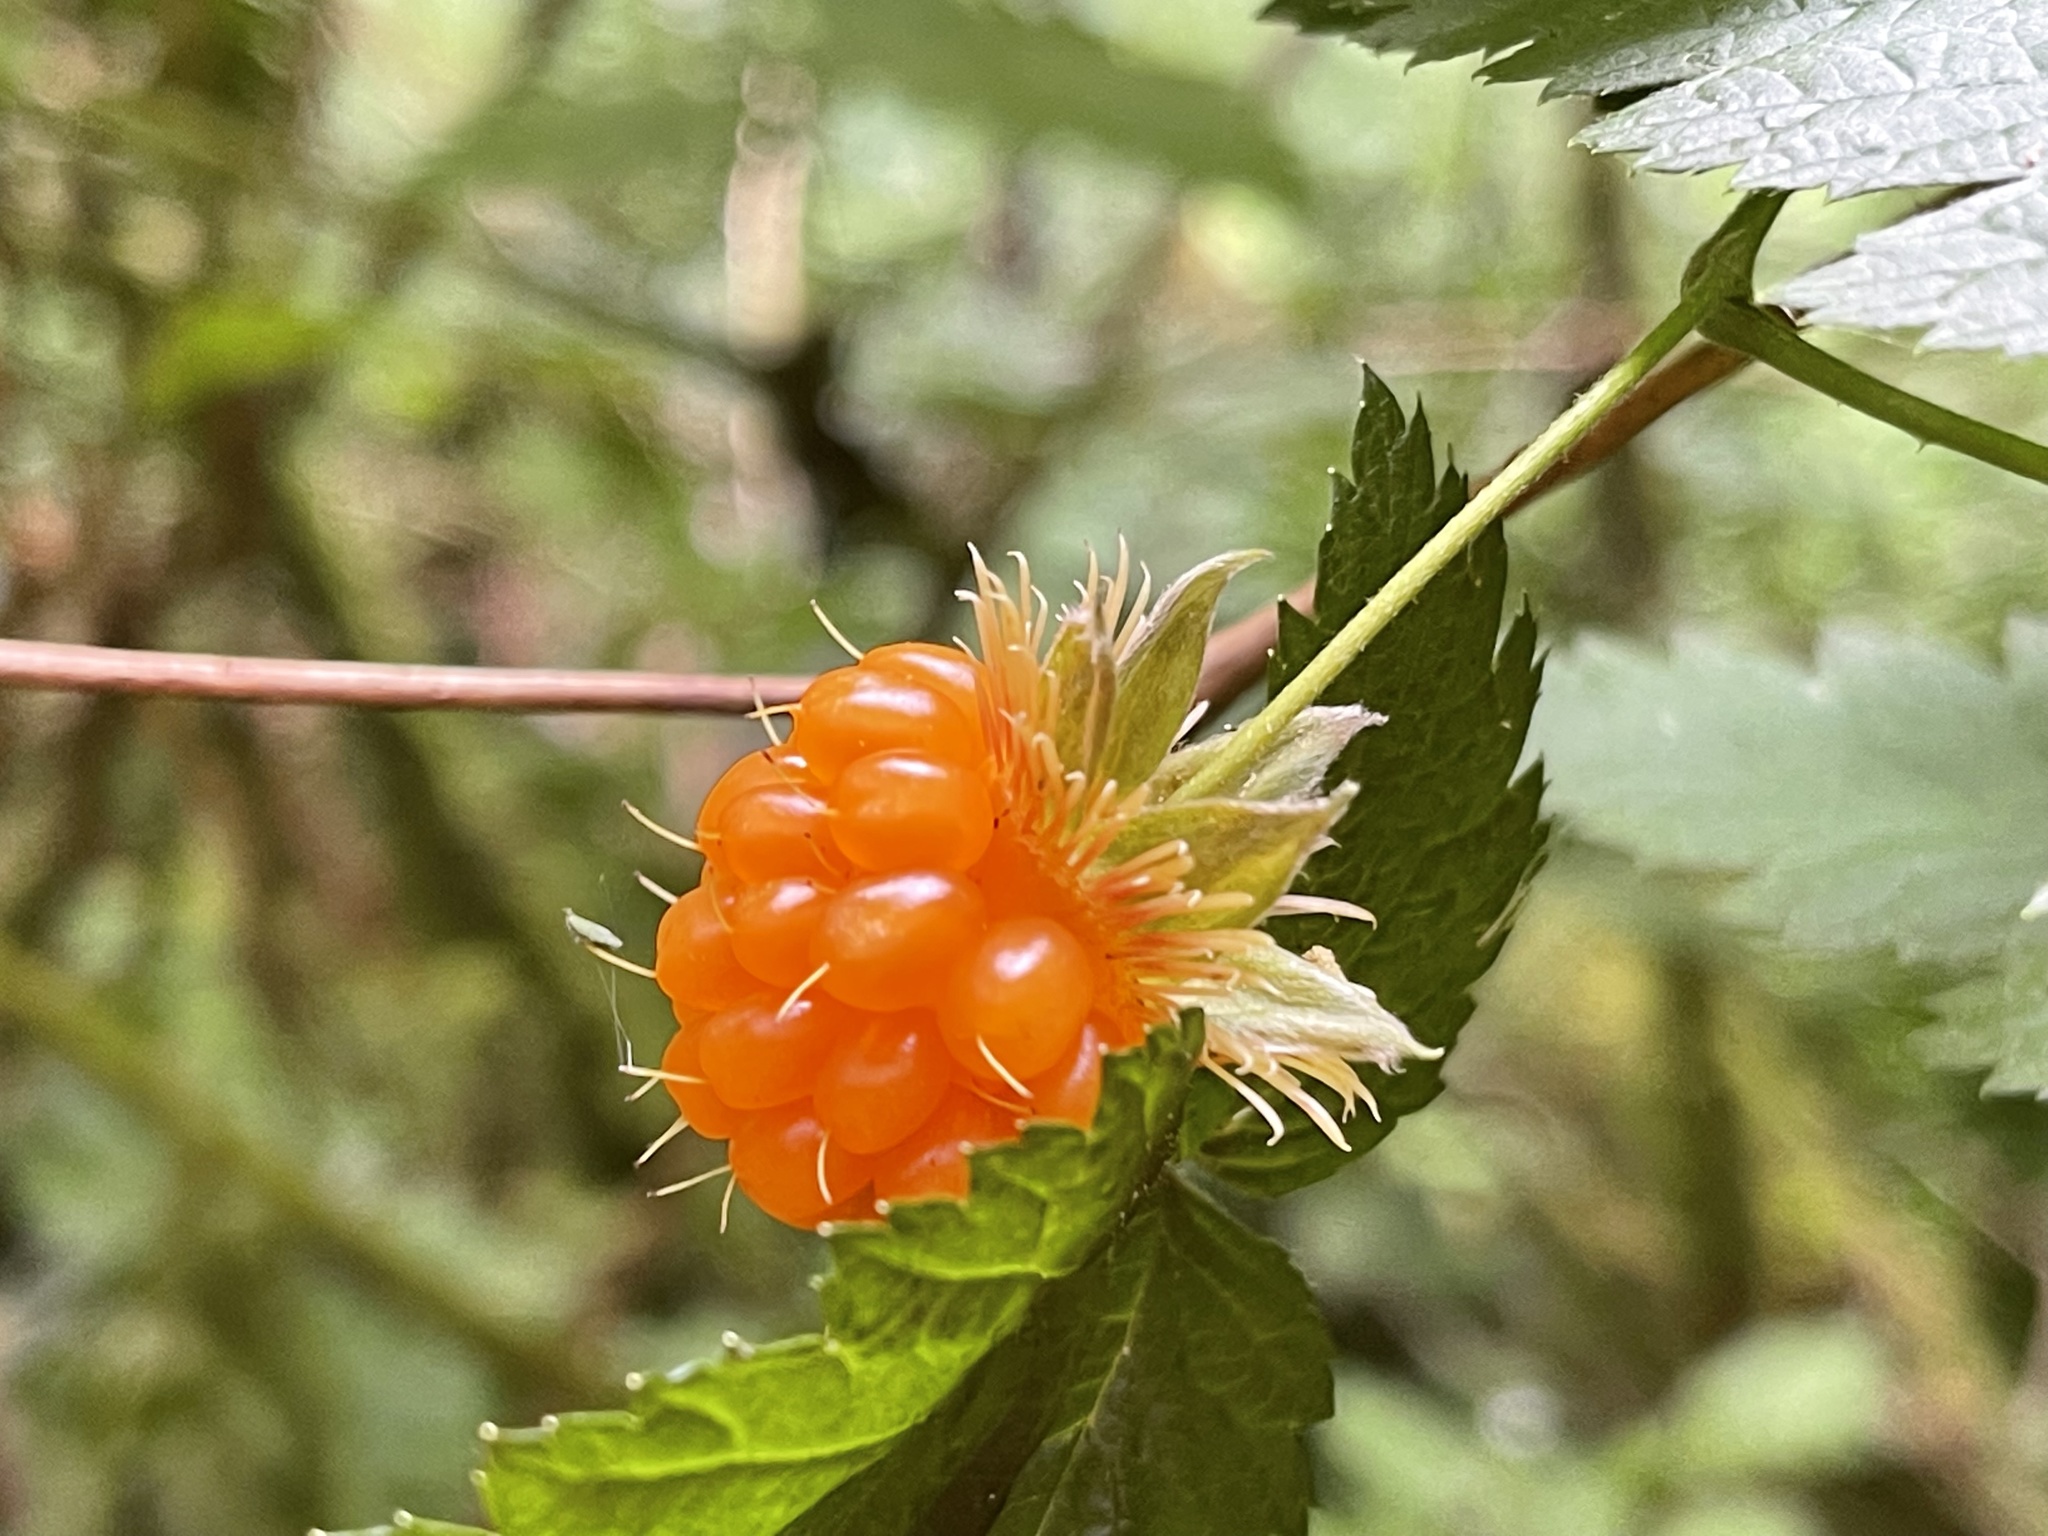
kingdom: Plantae
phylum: Tracheophyta
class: Magnoliopsida
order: Rosales
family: Rosaceae
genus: Rubus
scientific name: Rubus spectabilis
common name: Salmonberry
